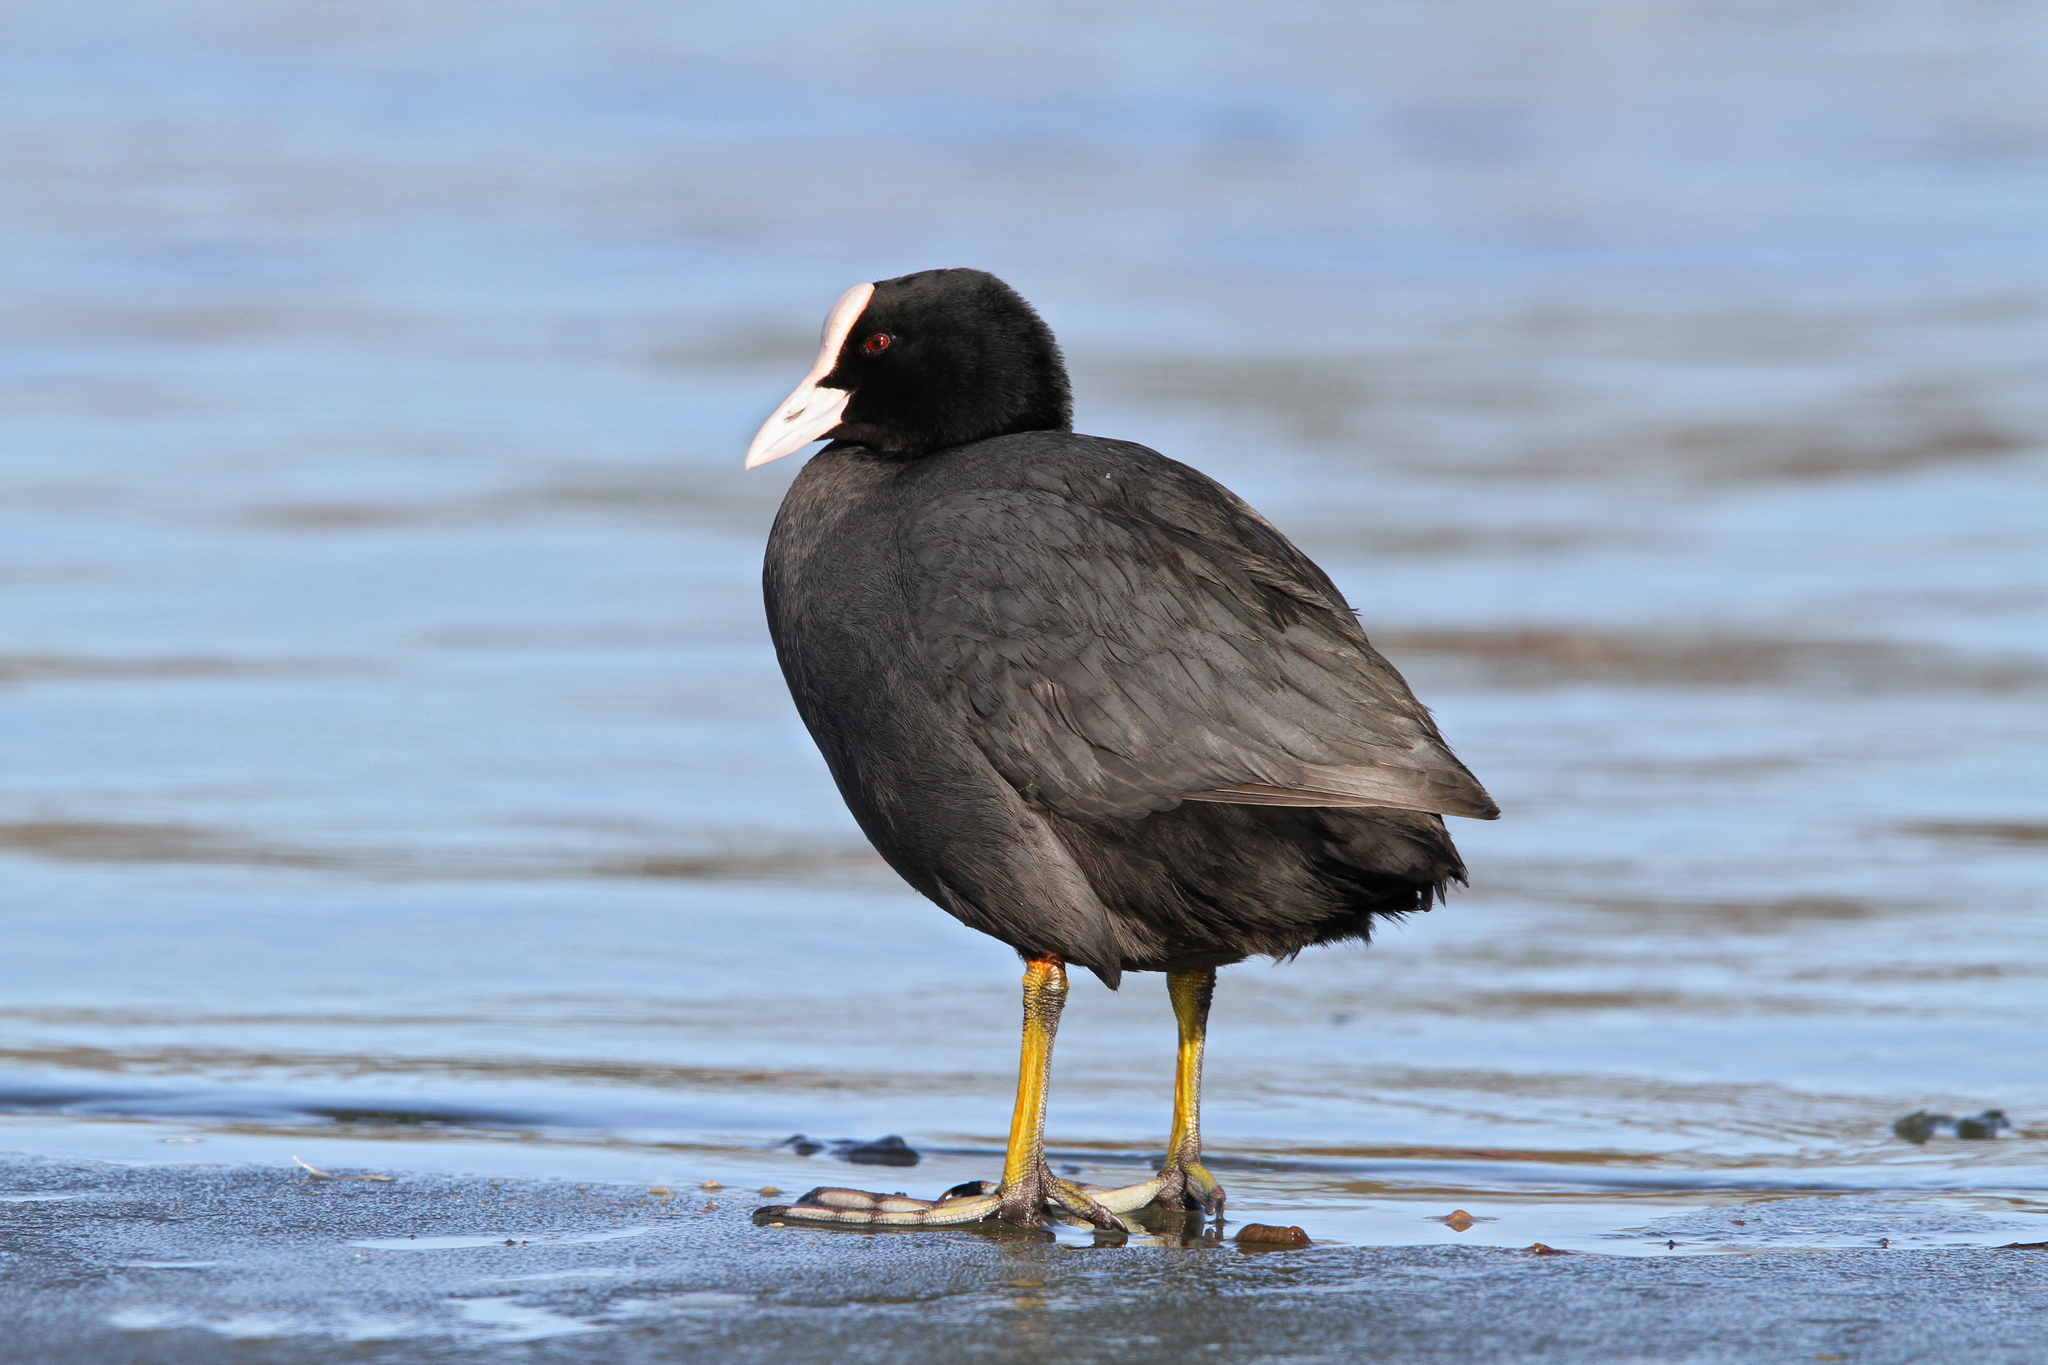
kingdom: Animalia
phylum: Chordata
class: Aves
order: Gruiformes
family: Rallidae
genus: Fulica
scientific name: Fulica atra
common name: Eurasian coot
